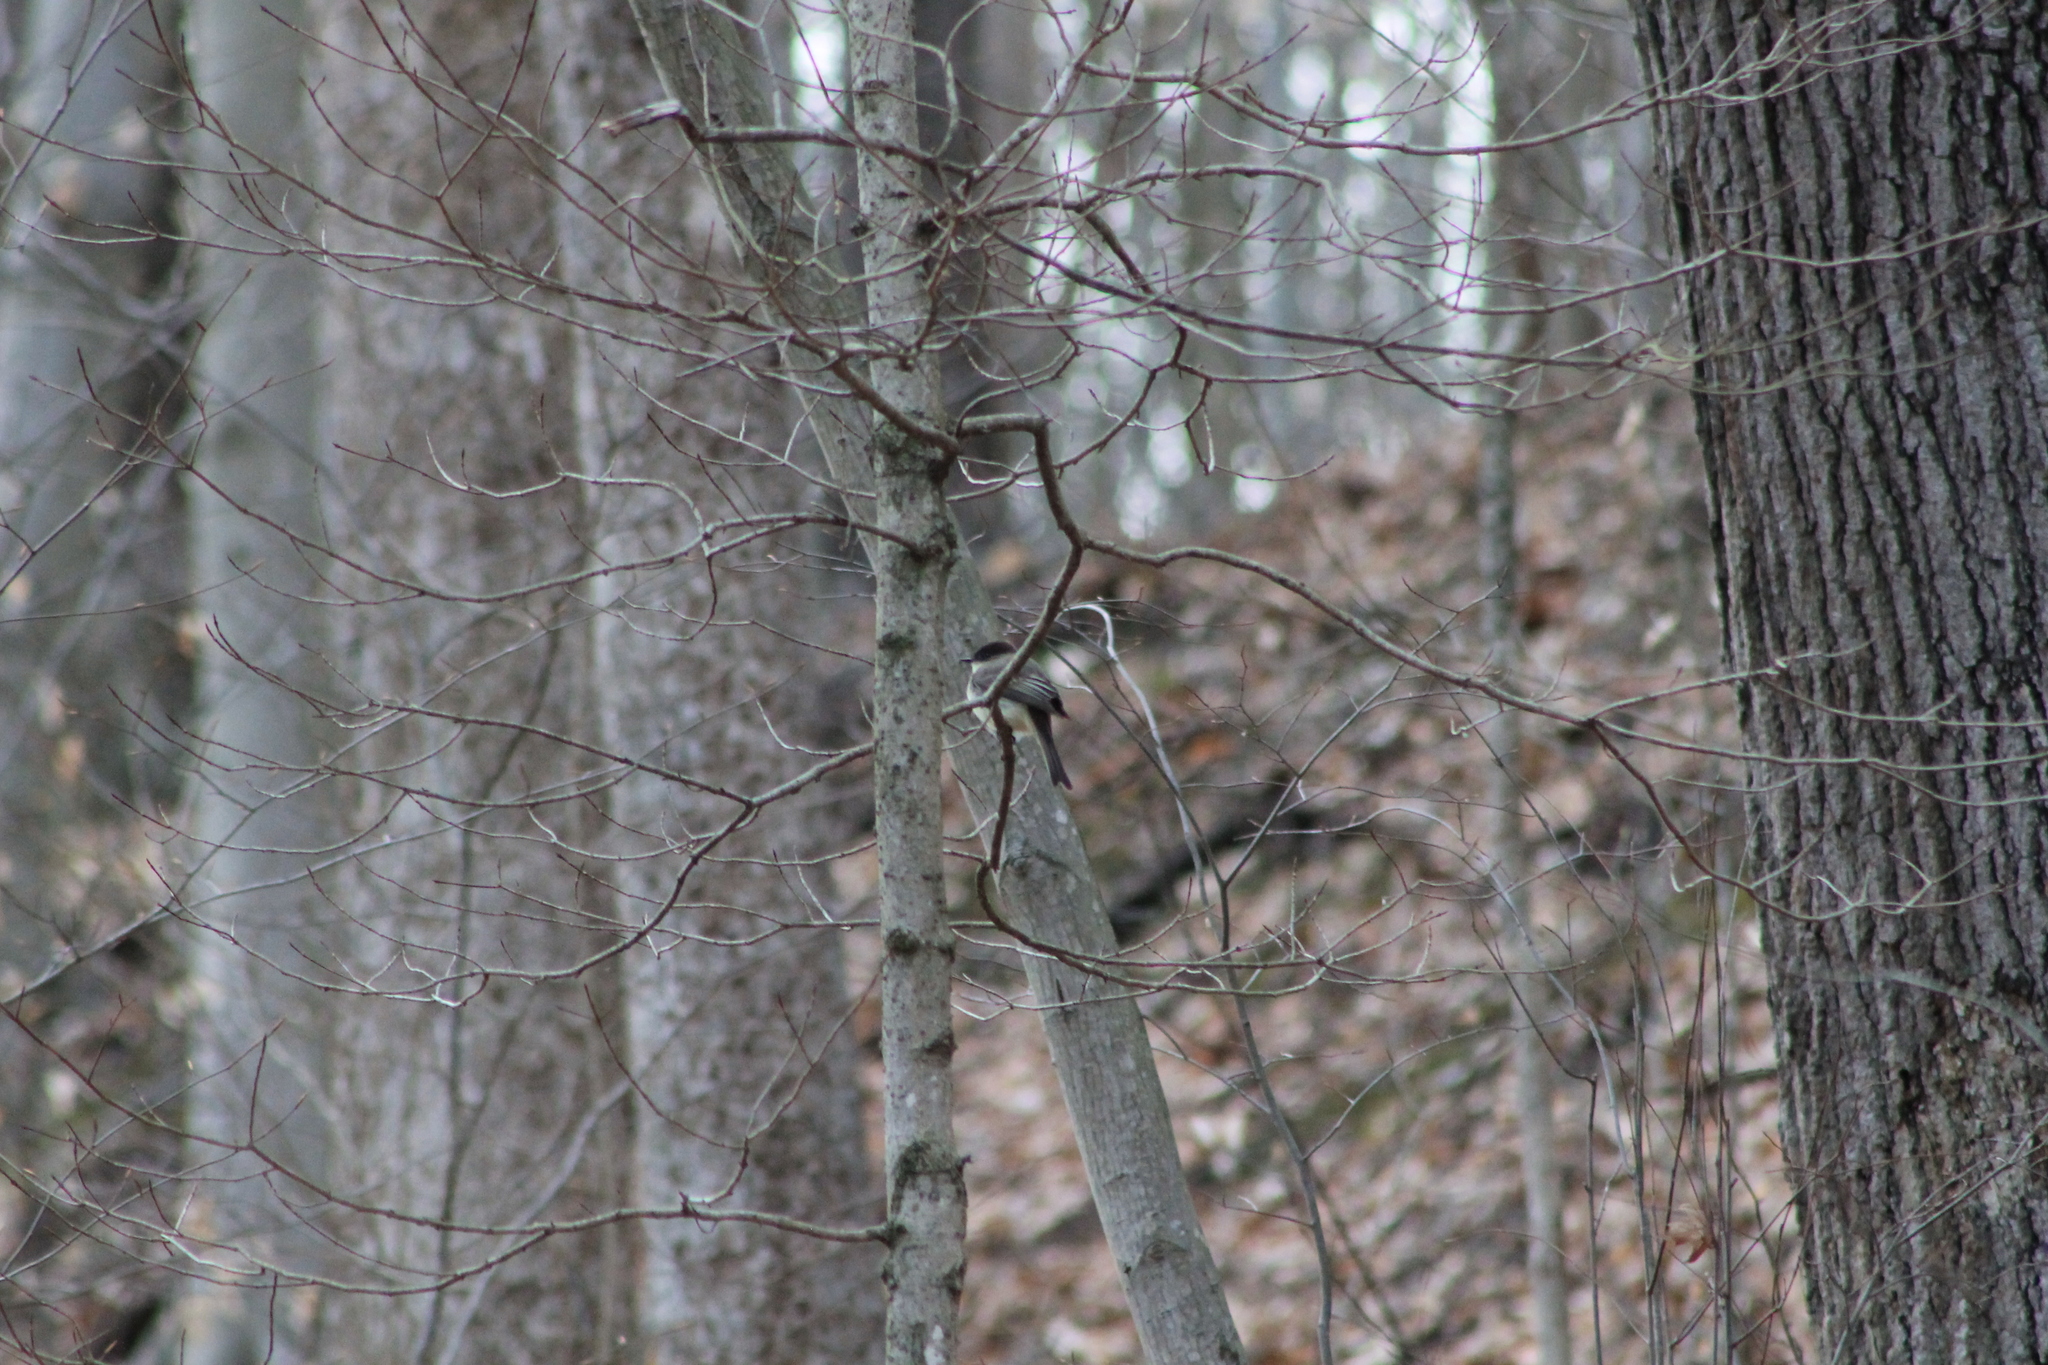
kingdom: Animalia
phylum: Chordata
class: Aves
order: Passeriformes
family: Tyrannidae
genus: Sayornis
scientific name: Sayornis phoebe
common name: Eastern phoebe
